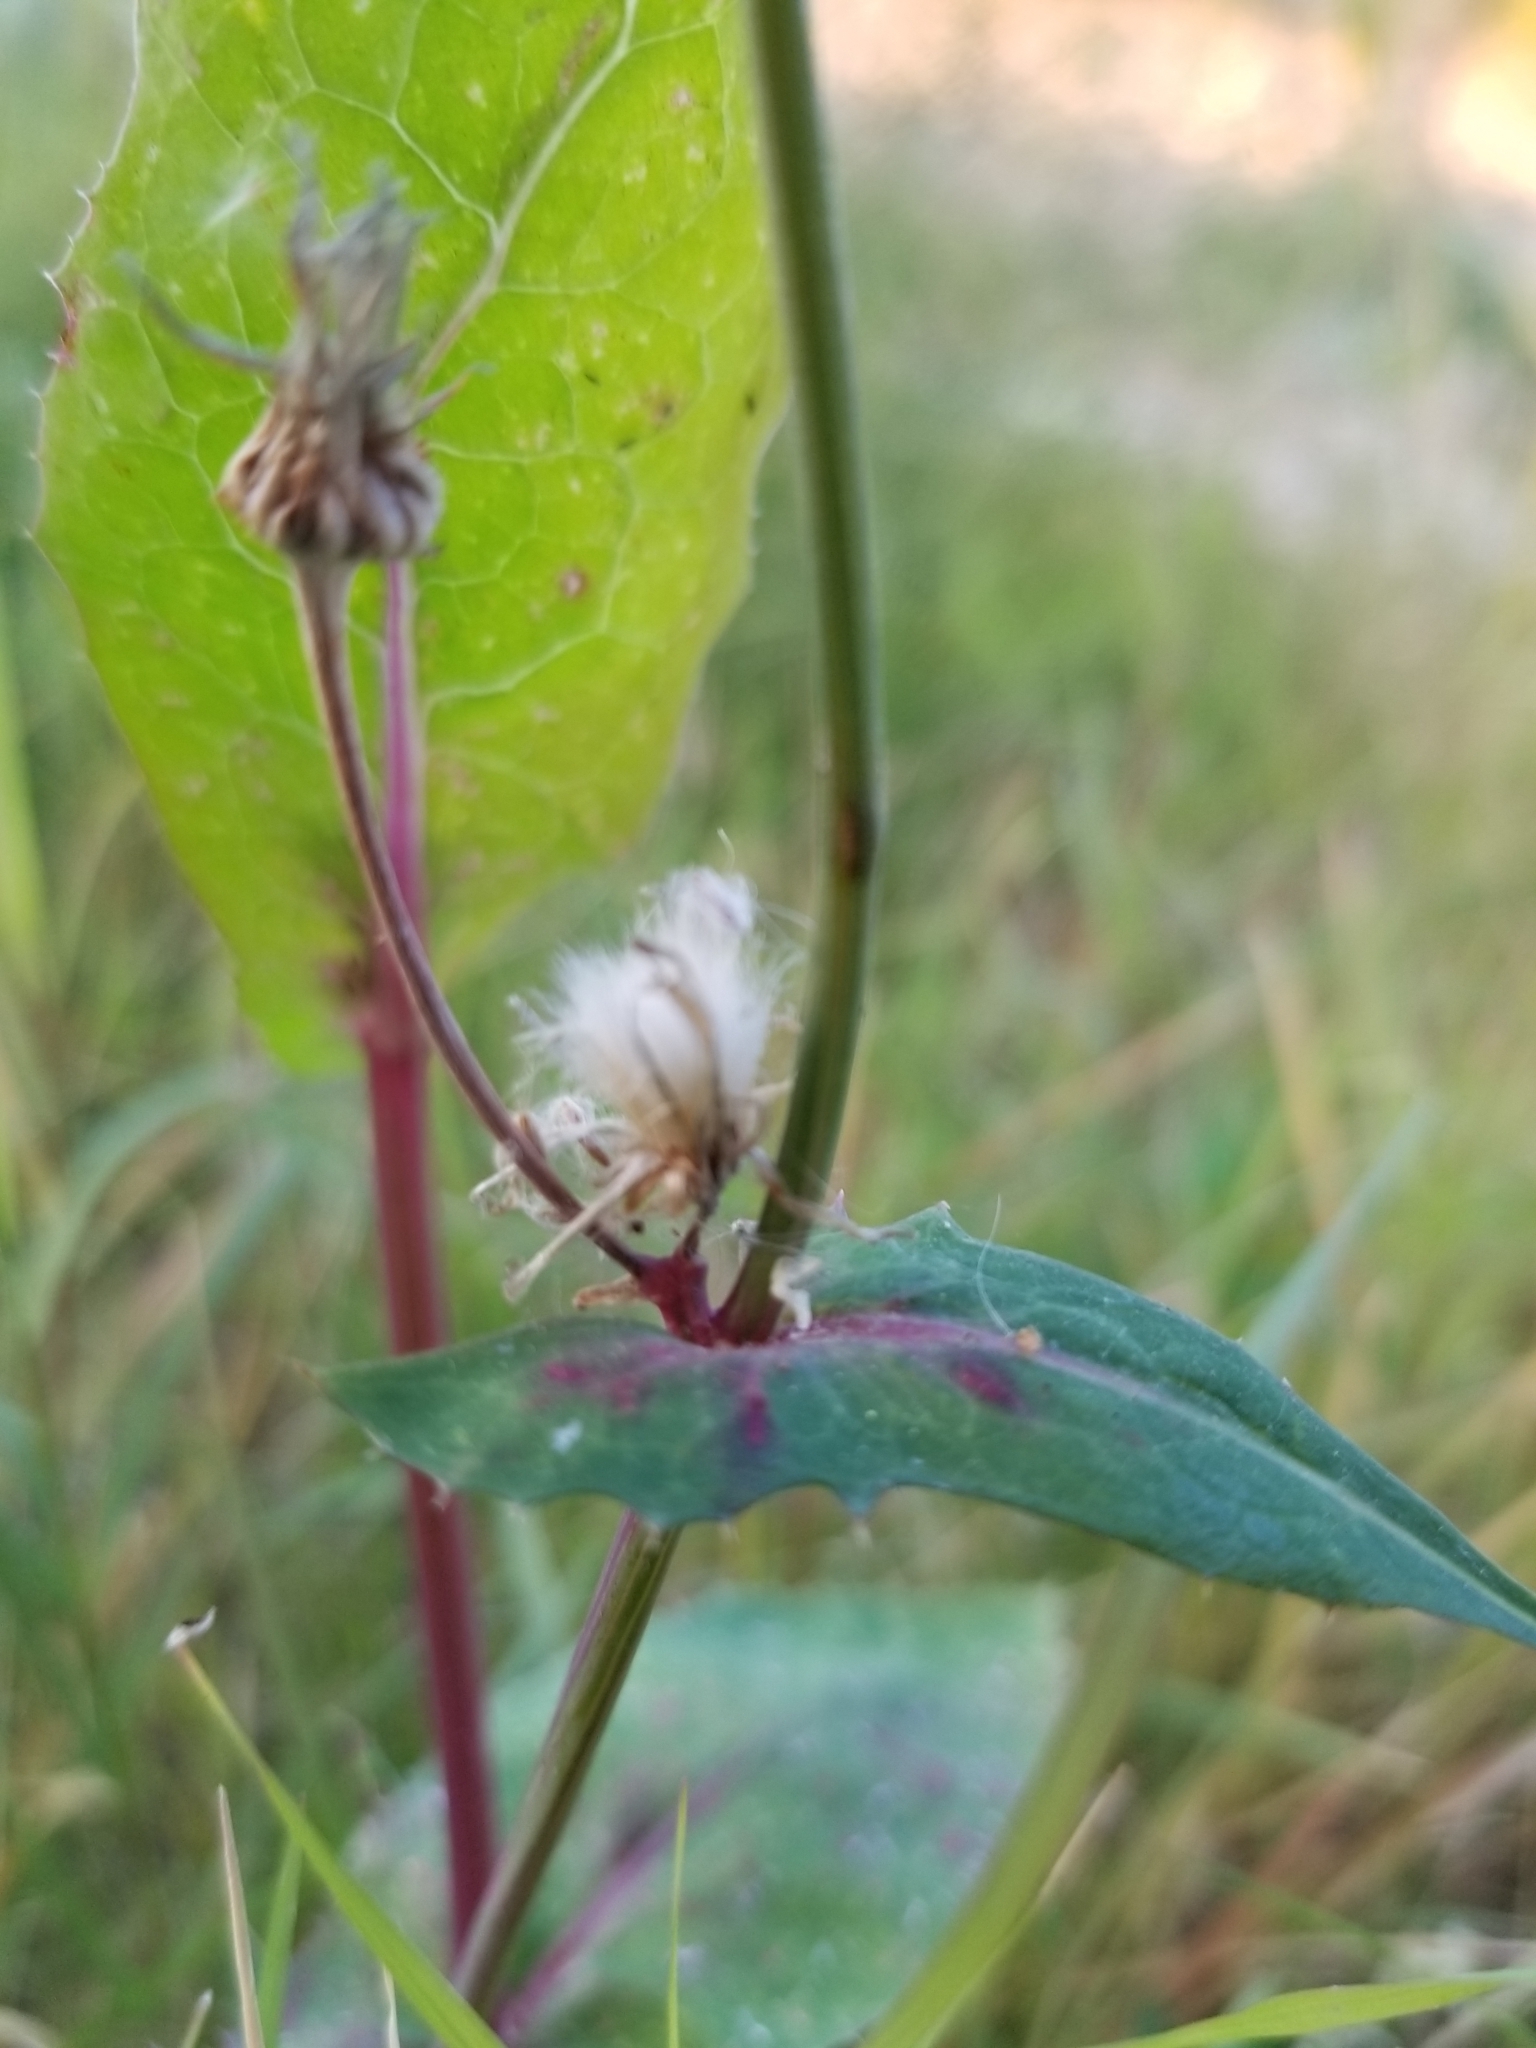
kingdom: Plantae
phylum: Tracheophyta
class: Magnoliopsida
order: Asterales
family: Asteraceae
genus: Sonchus
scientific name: Sonchus oleraceus
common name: Common sowthistle
